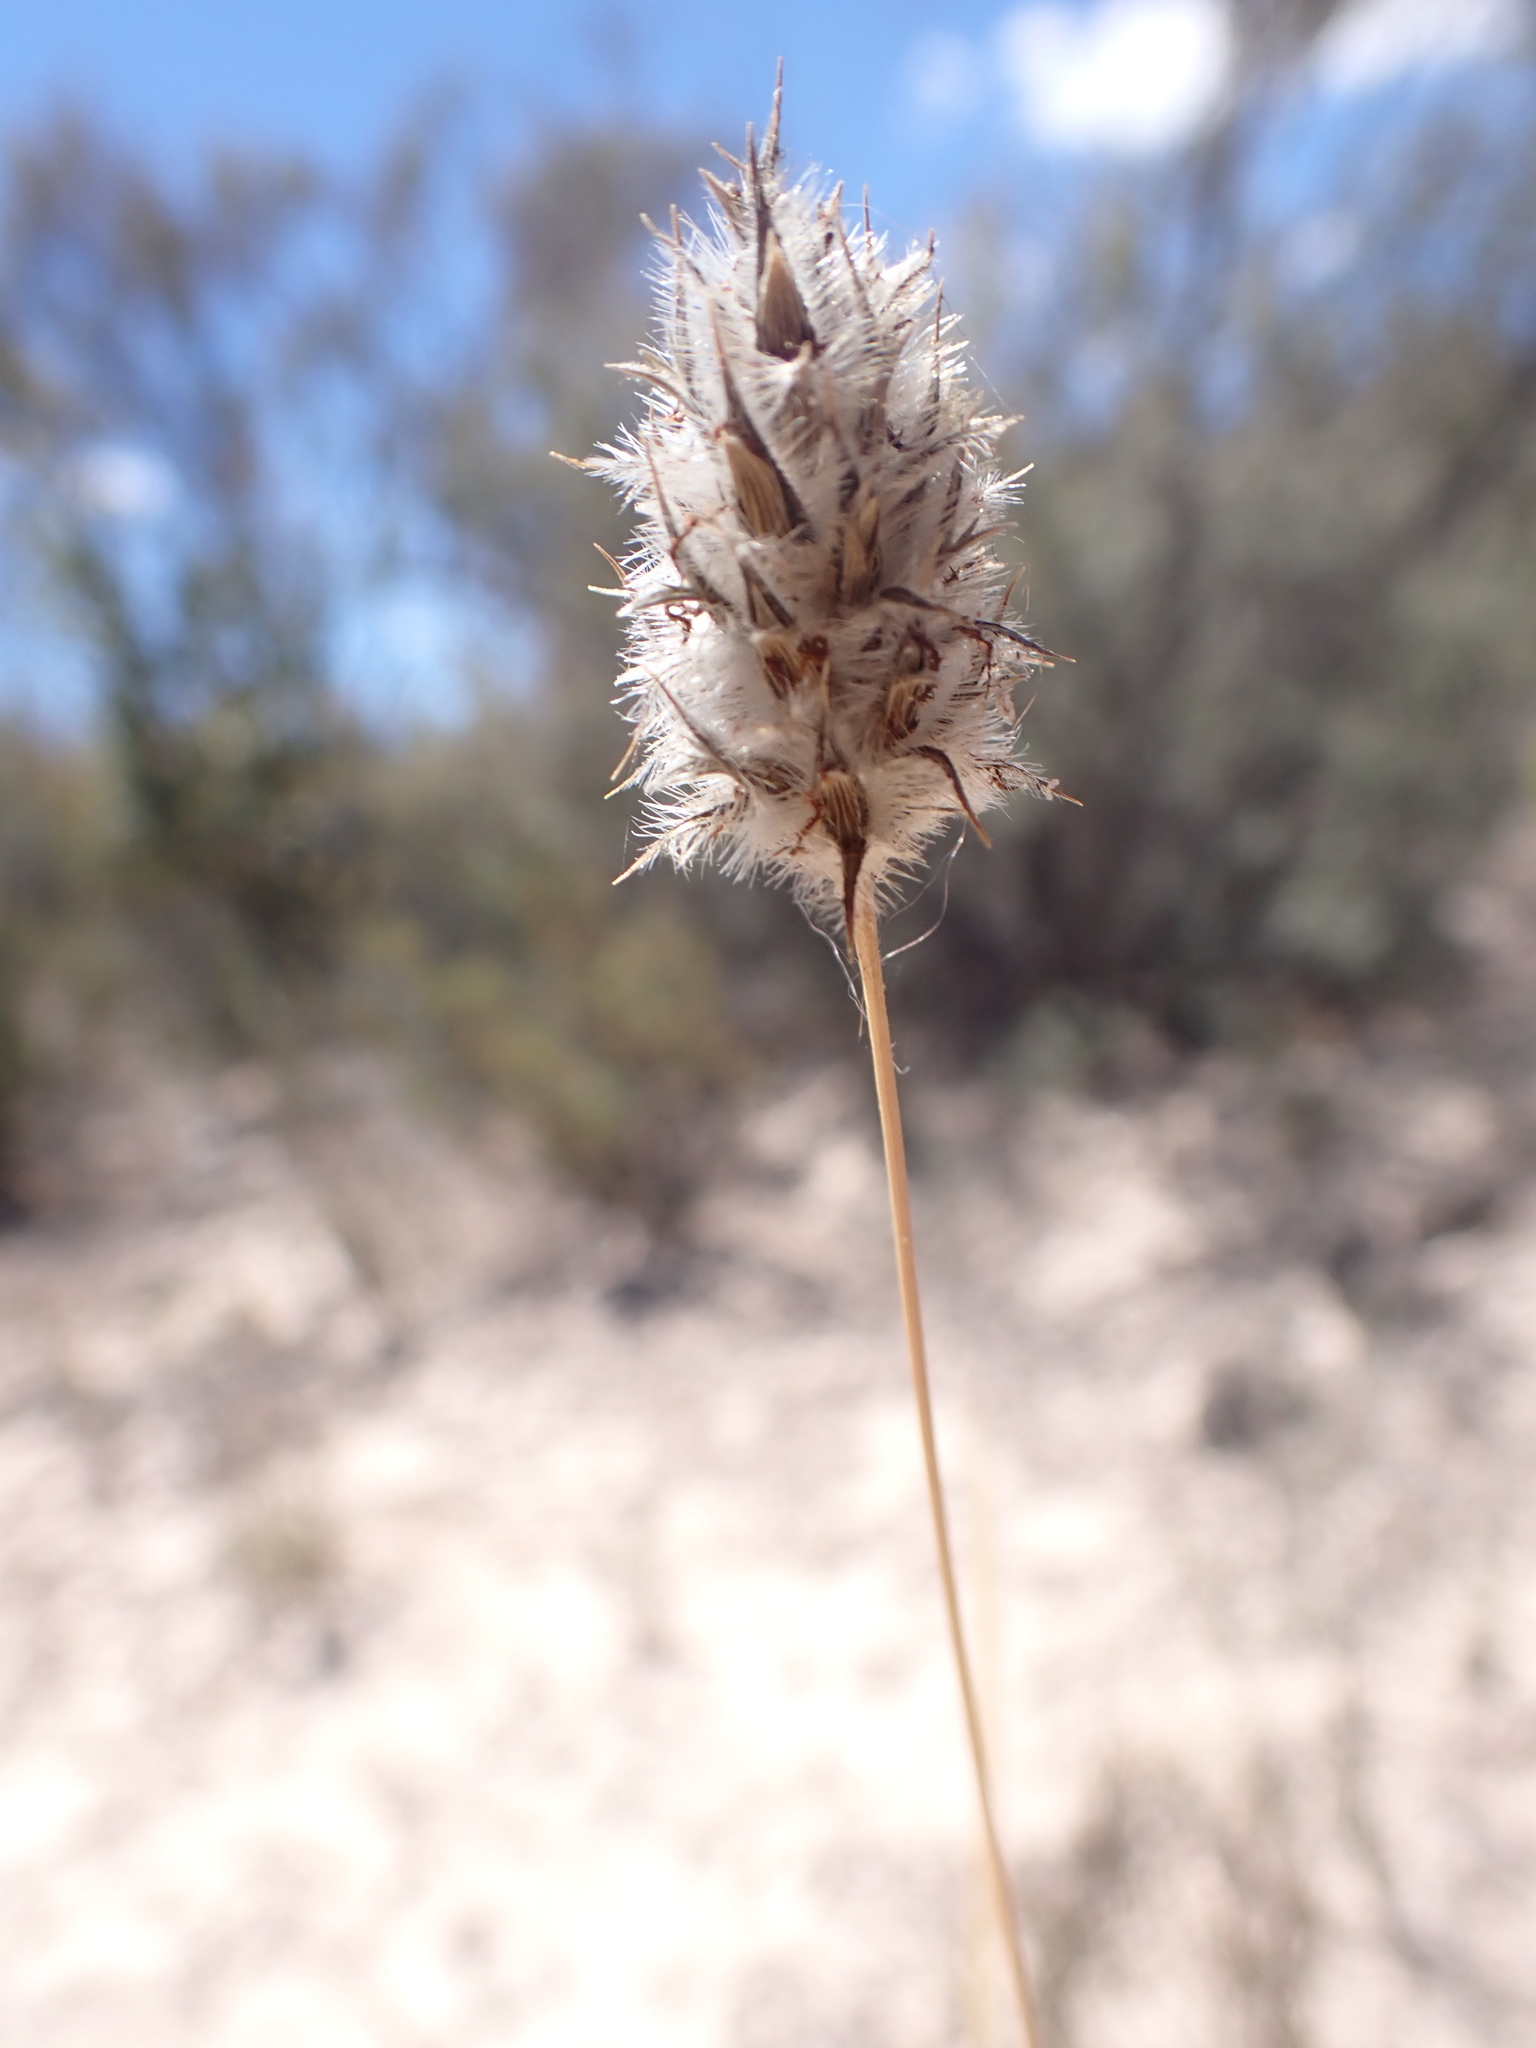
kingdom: Plantae
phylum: Tracheophyta
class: Liliopsida
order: Poales
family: Poaceae
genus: Neurachne
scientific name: Neurachne alopecuroidea
